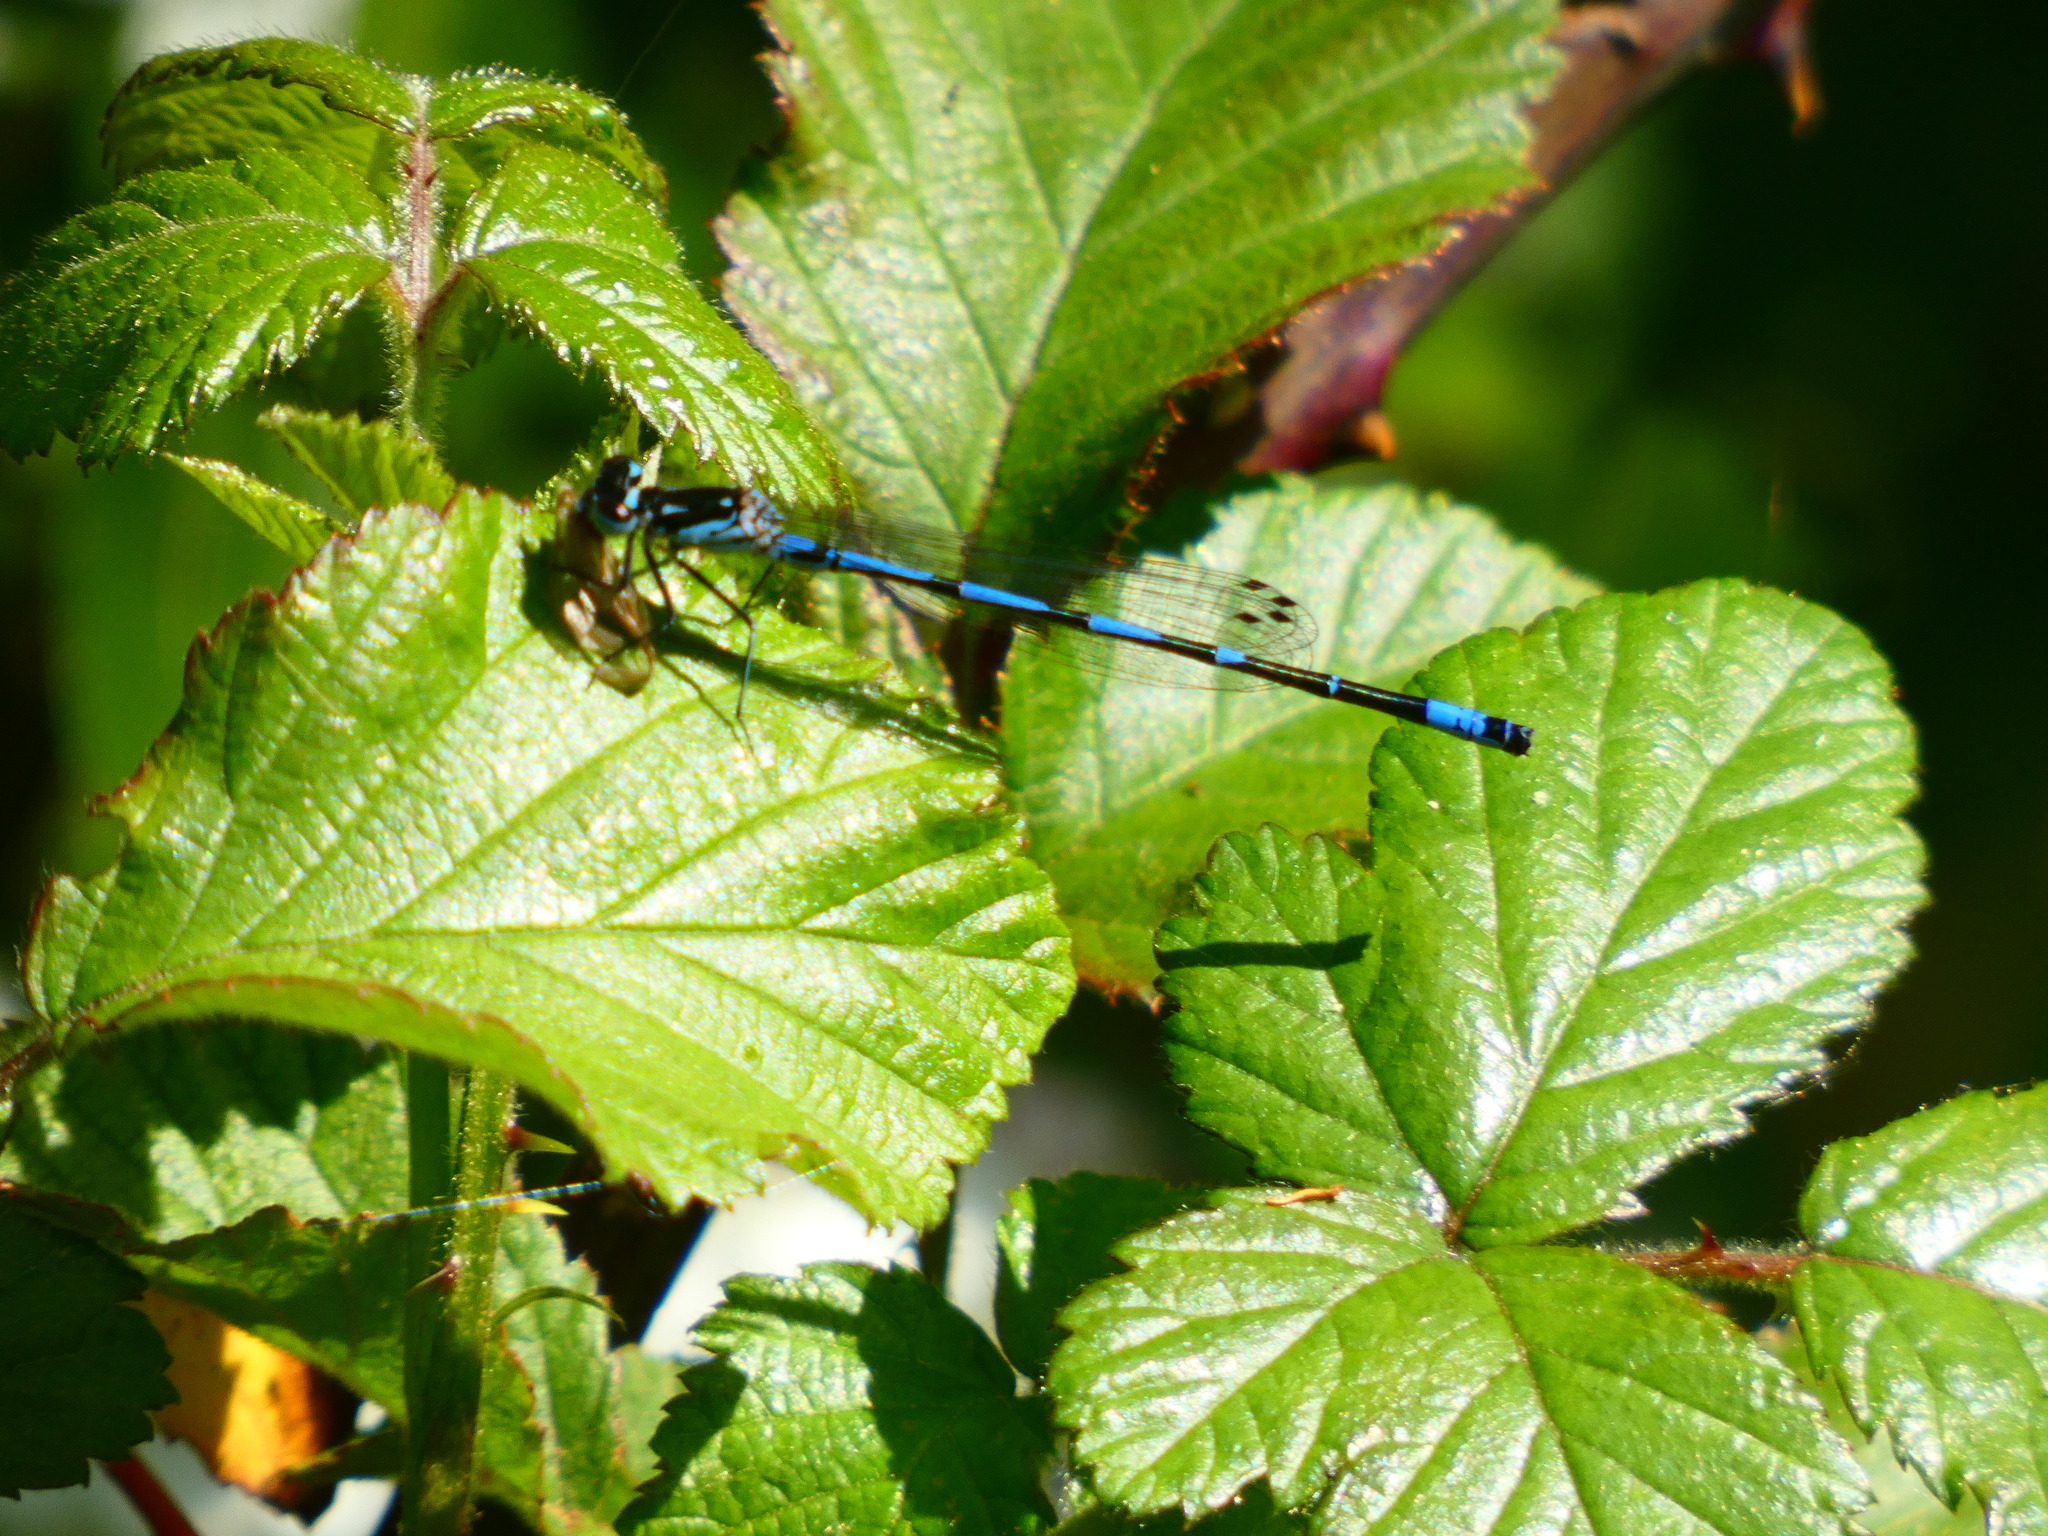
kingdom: Animalia
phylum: Arthropoda
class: Insecta
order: Odonata
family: Coenagrionidae
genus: Coenagrion
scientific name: Coenagrion pulchellum
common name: Variable bluet
